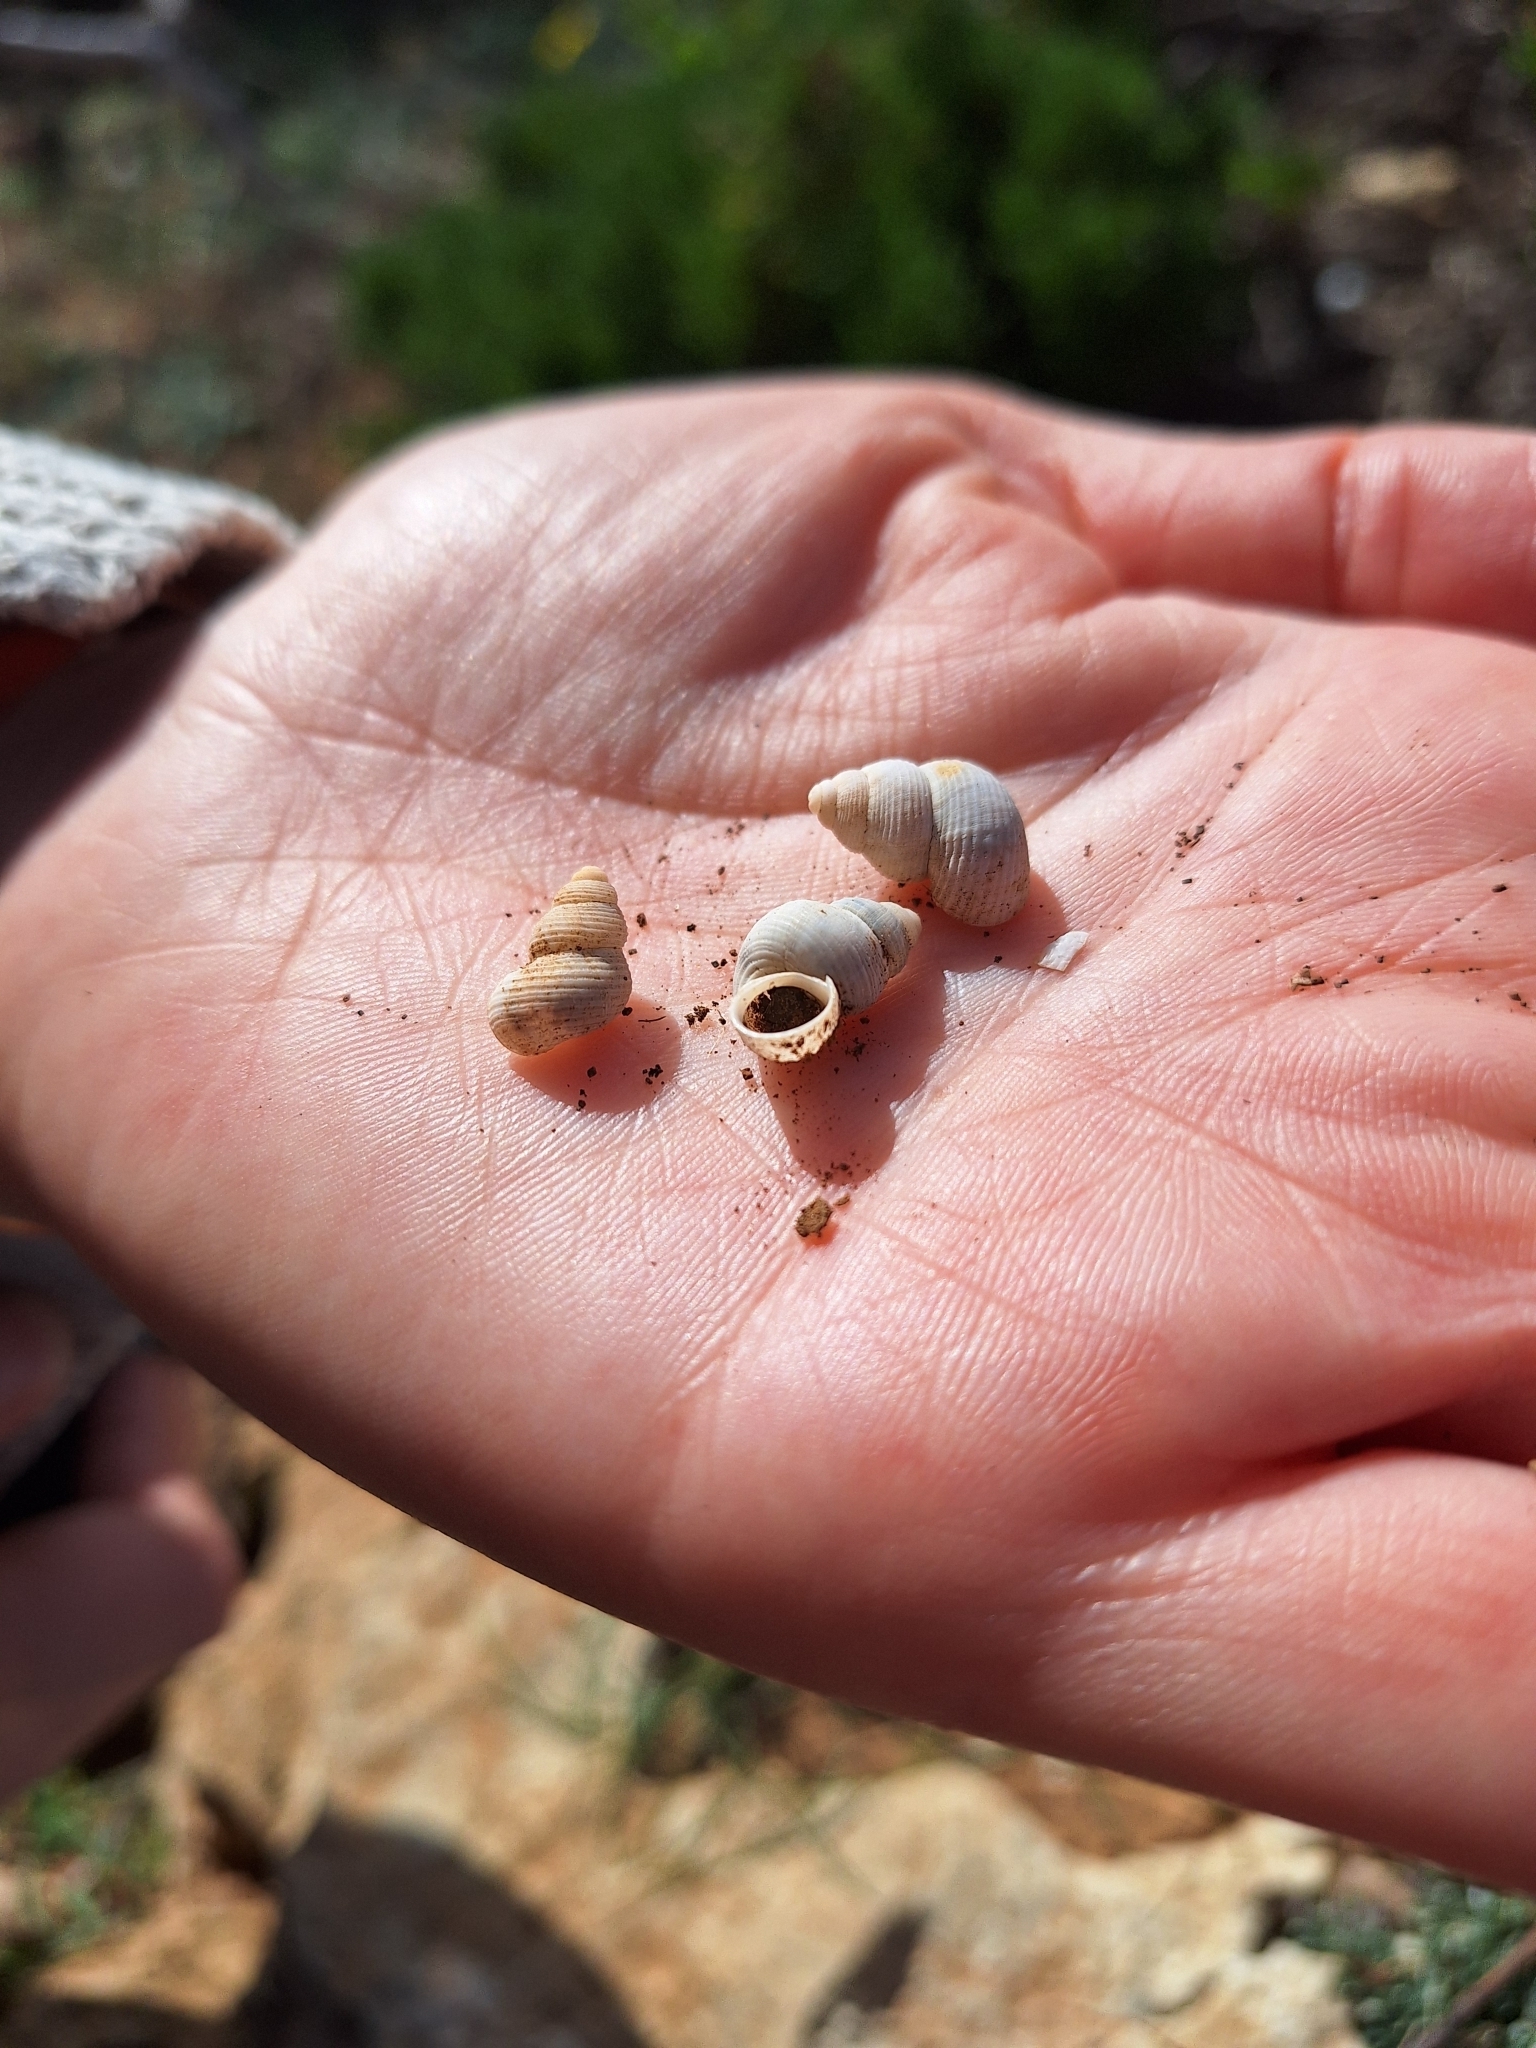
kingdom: Animalia
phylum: Mollusca
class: Gastropoda
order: Littorinimorpha
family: Pomatiidae
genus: Tudorella
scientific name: Tudorella melitensis
